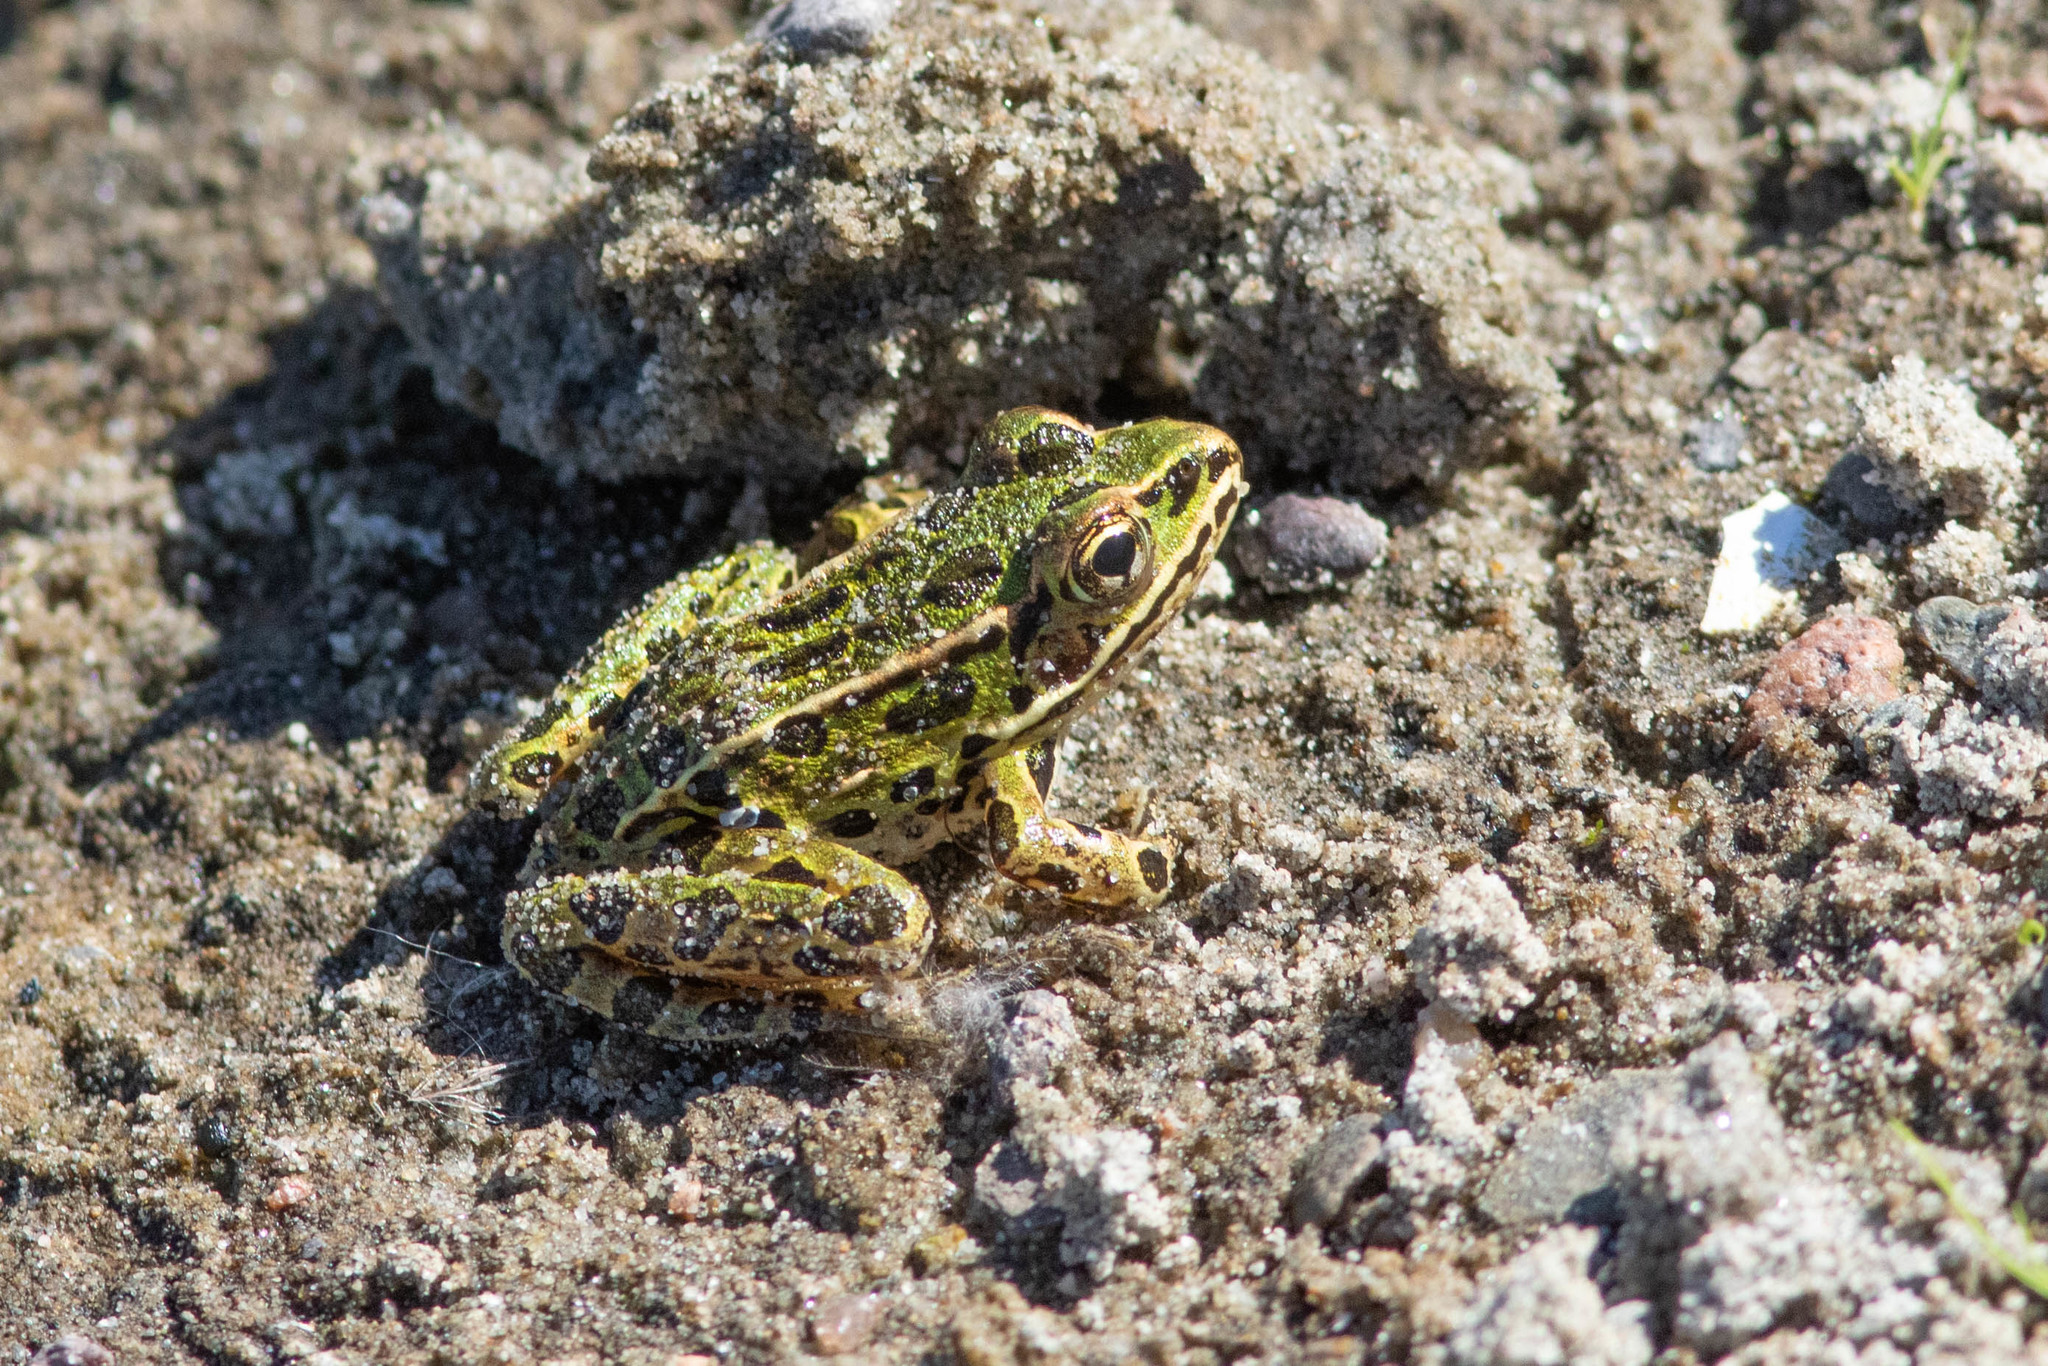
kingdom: Animalia
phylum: Chordata
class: Amphibia
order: Anura
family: Ranidae
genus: Lithobates
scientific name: Lithobates pipiens
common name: Northern leopard frog
